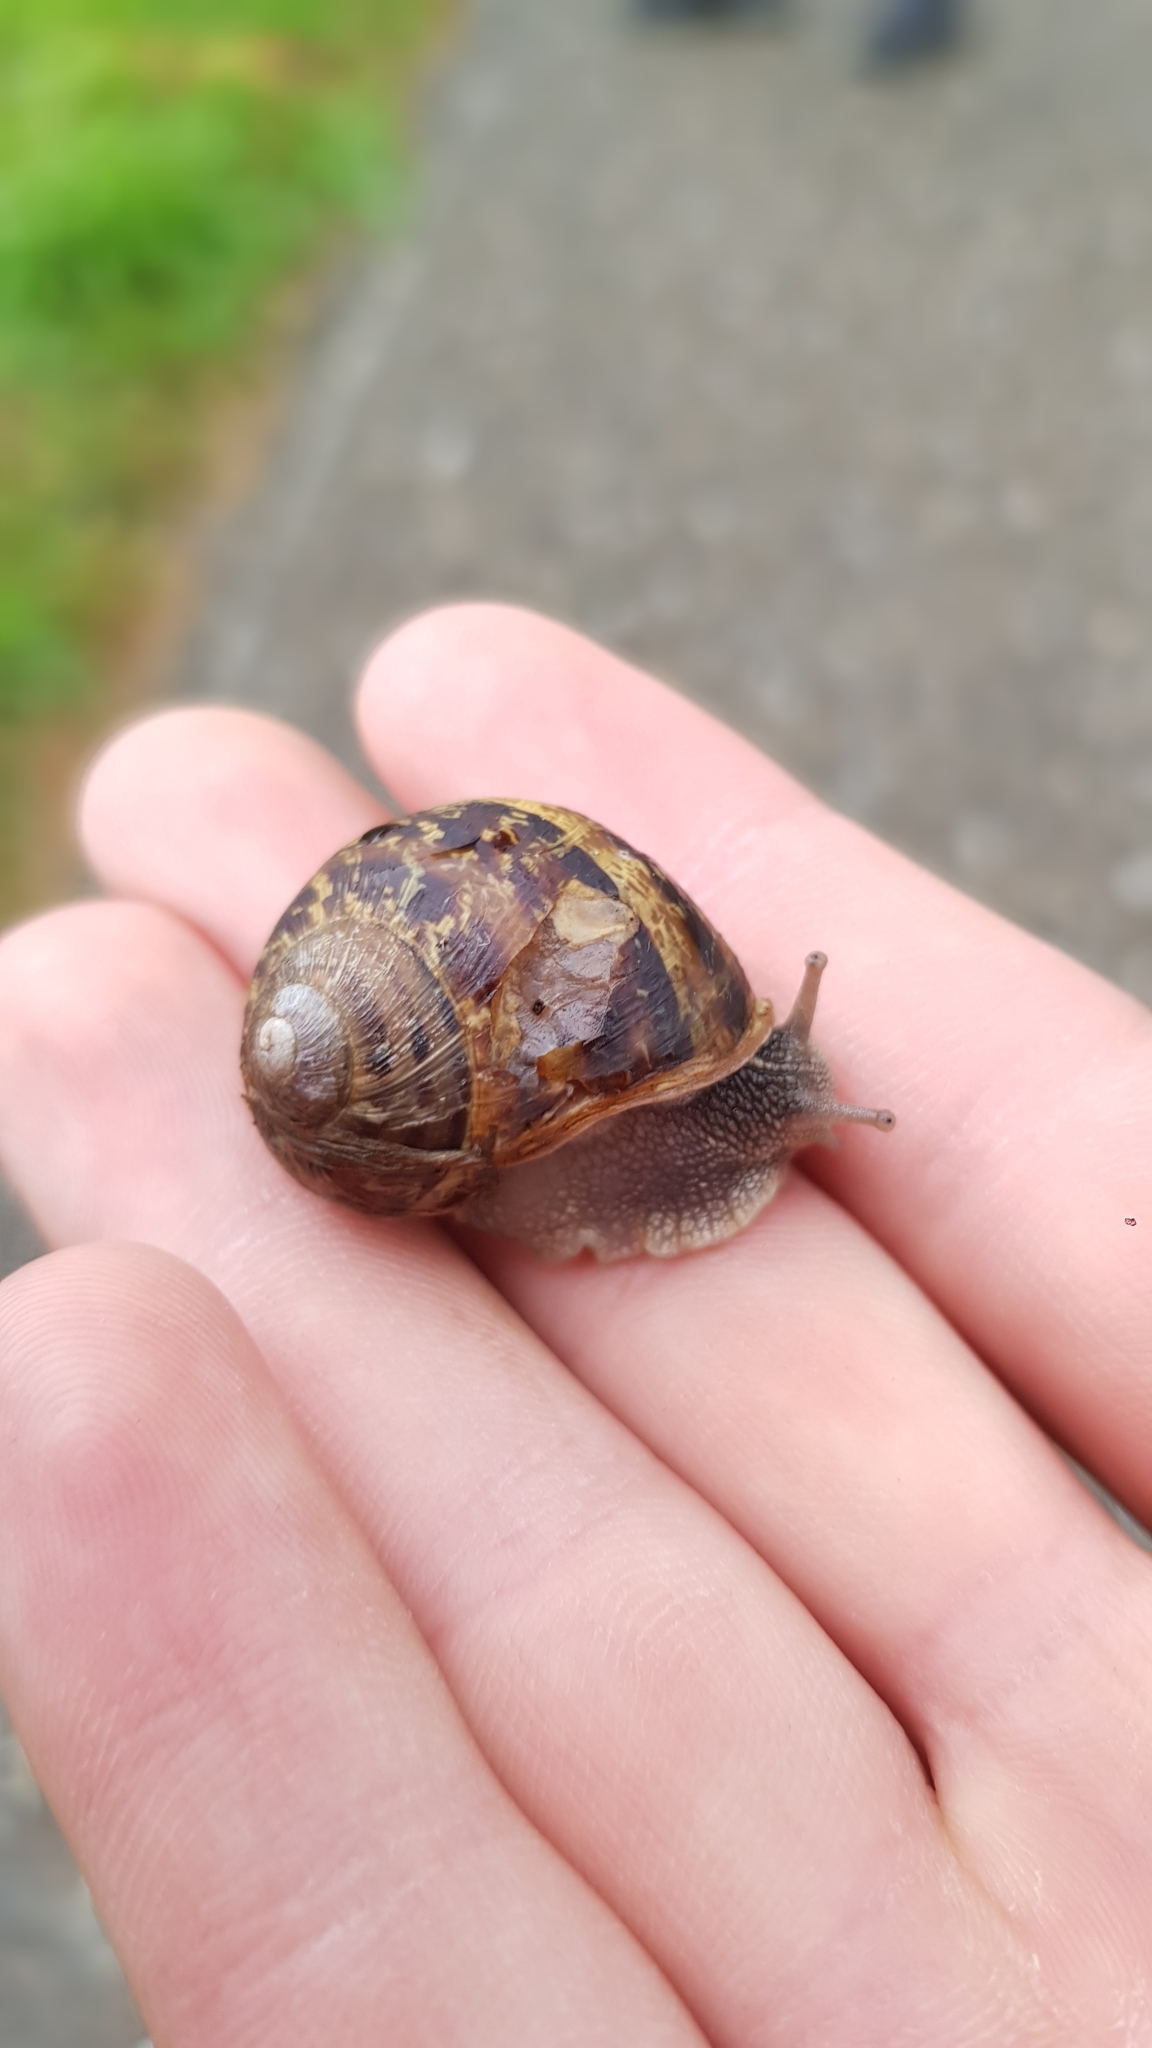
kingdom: Animalia
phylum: Mollusca
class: Gastropoda
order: Stylommatophora
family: Helicidae
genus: Cornu
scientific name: Cornu aspersum
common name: Brown garden snail
